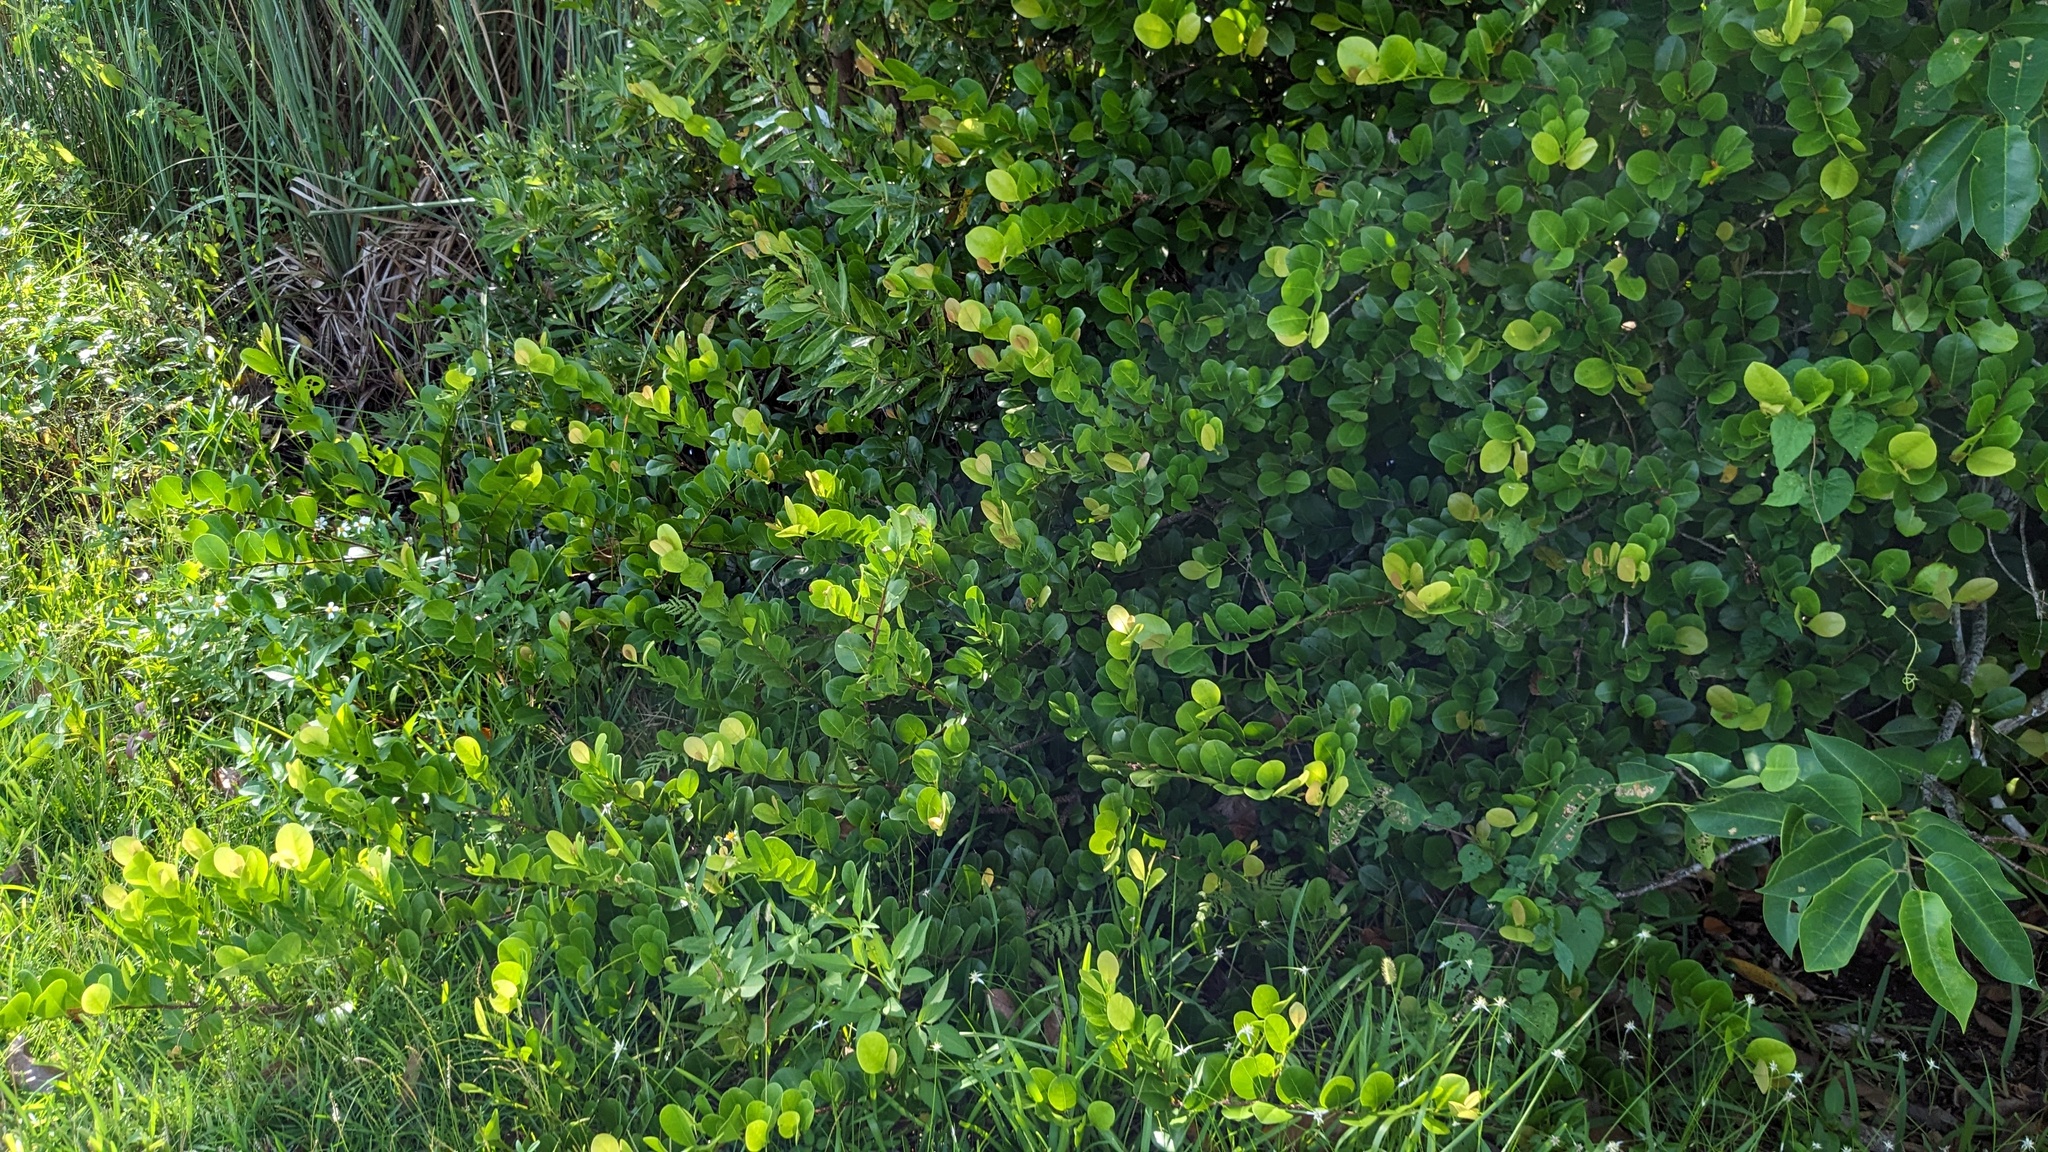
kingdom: Plantae
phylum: Tracheophyta
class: Magnoliopsida
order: Malpighiales
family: Chrysobalanaceae
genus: Chrysobalanus
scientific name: Chrysobalanus icaco
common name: Coco plum
